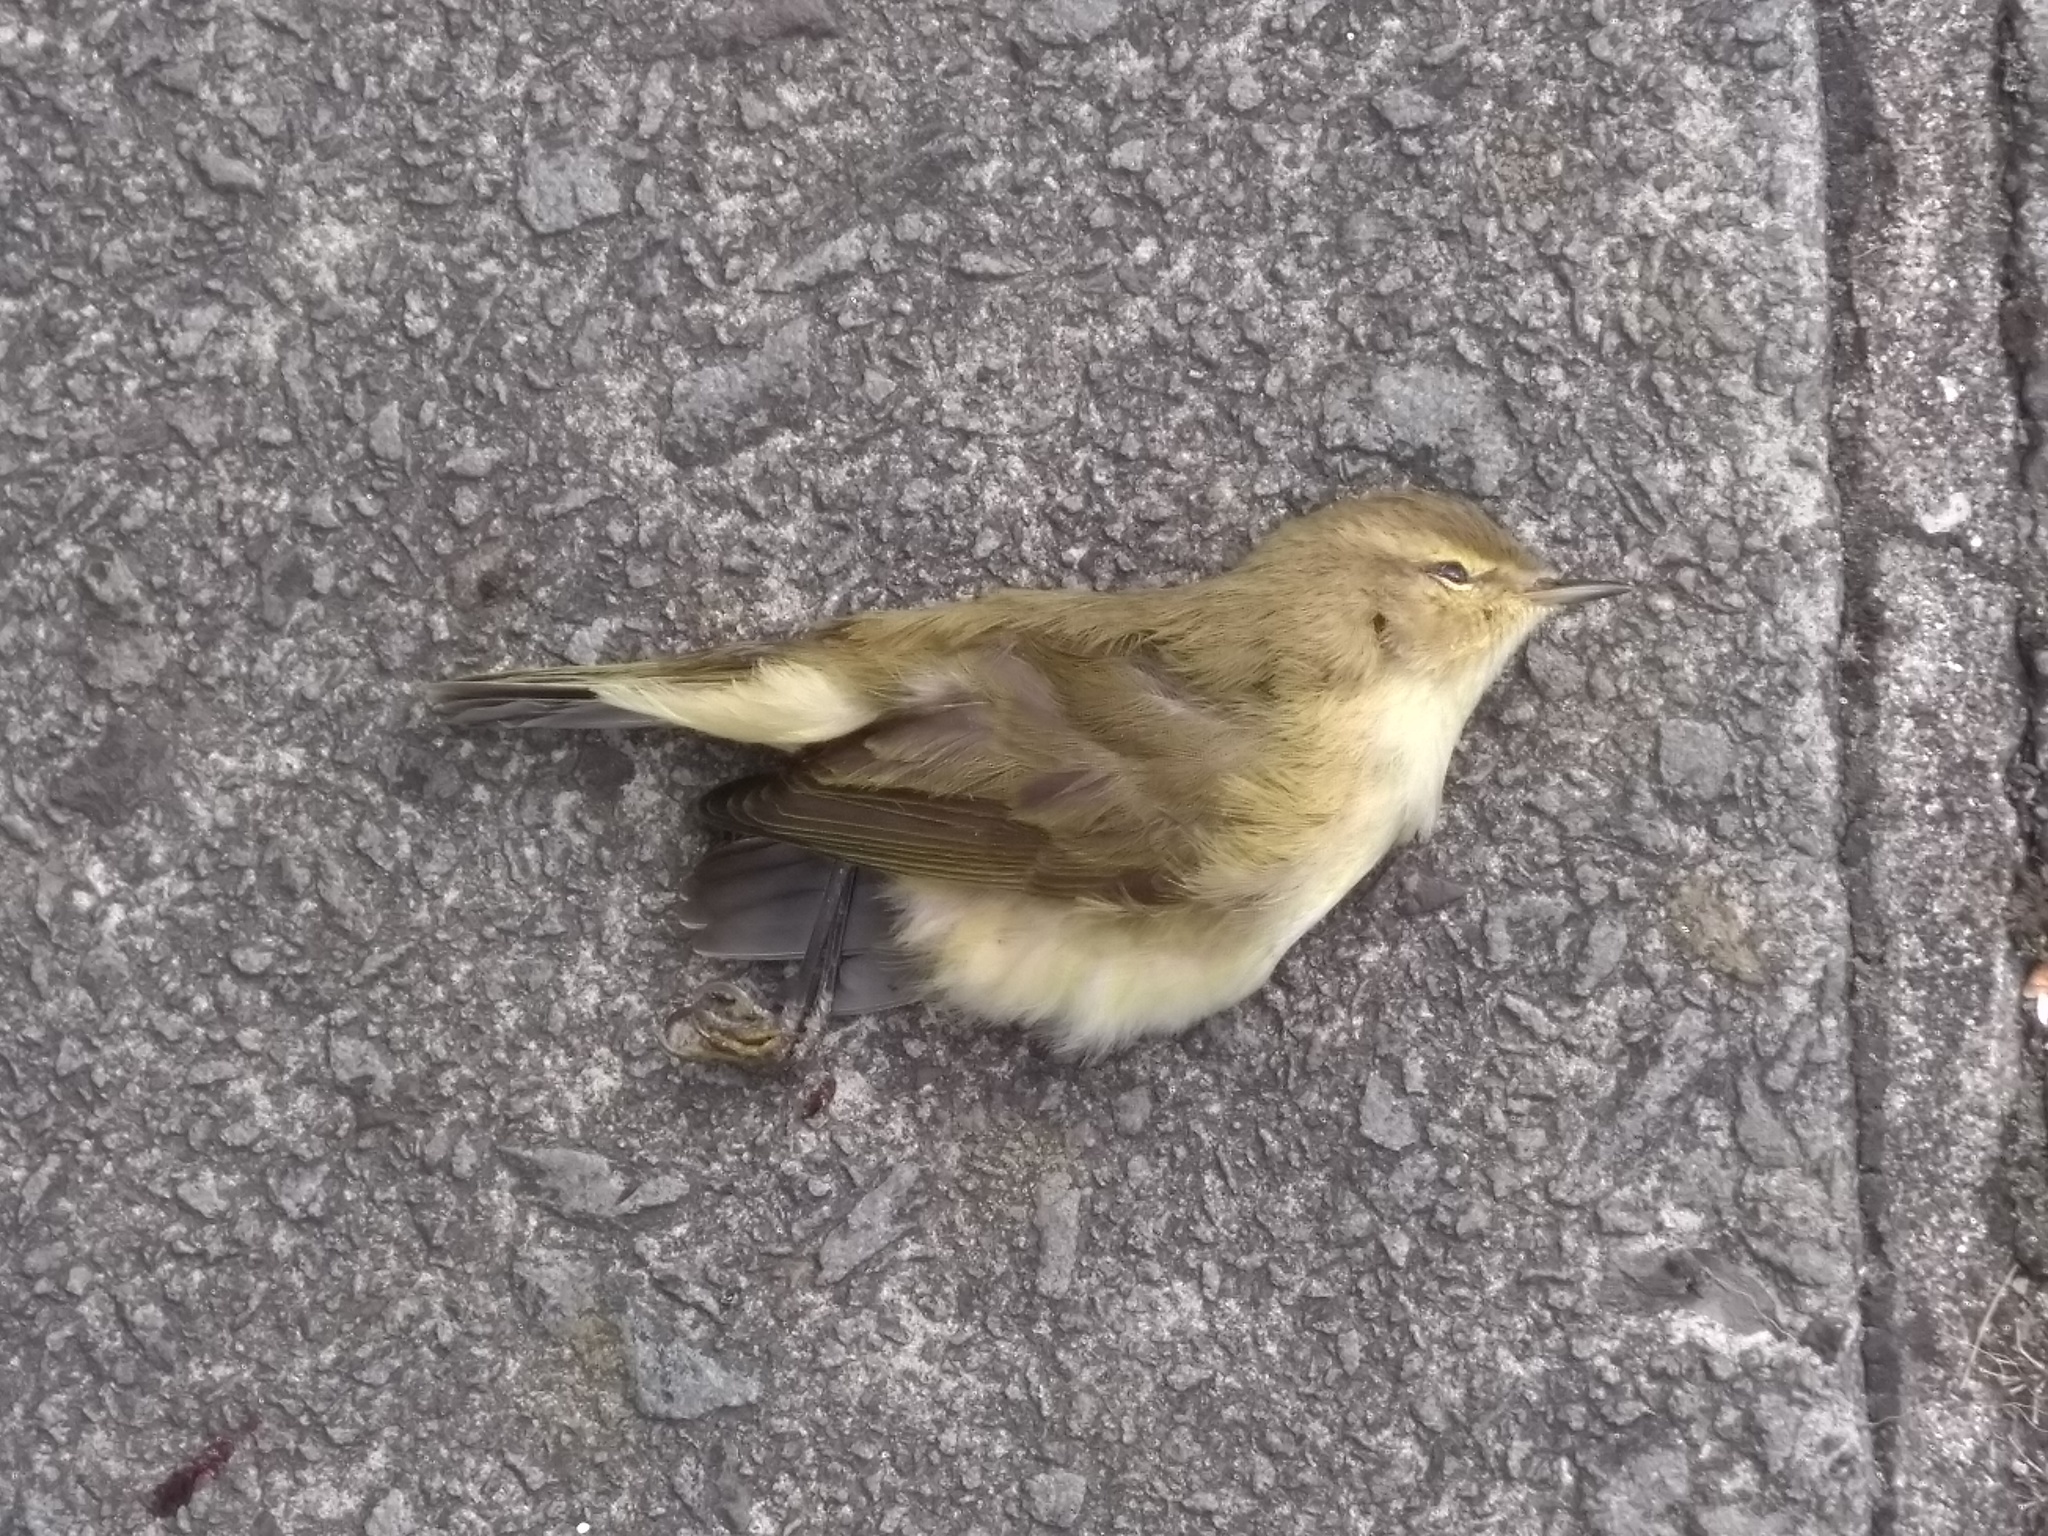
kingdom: Animalia
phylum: Chordata
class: Aves
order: Passeriformes
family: Phylloscopidae
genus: Phylloscopus
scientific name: Phylloscopus collybita
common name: Common chiffchaff
